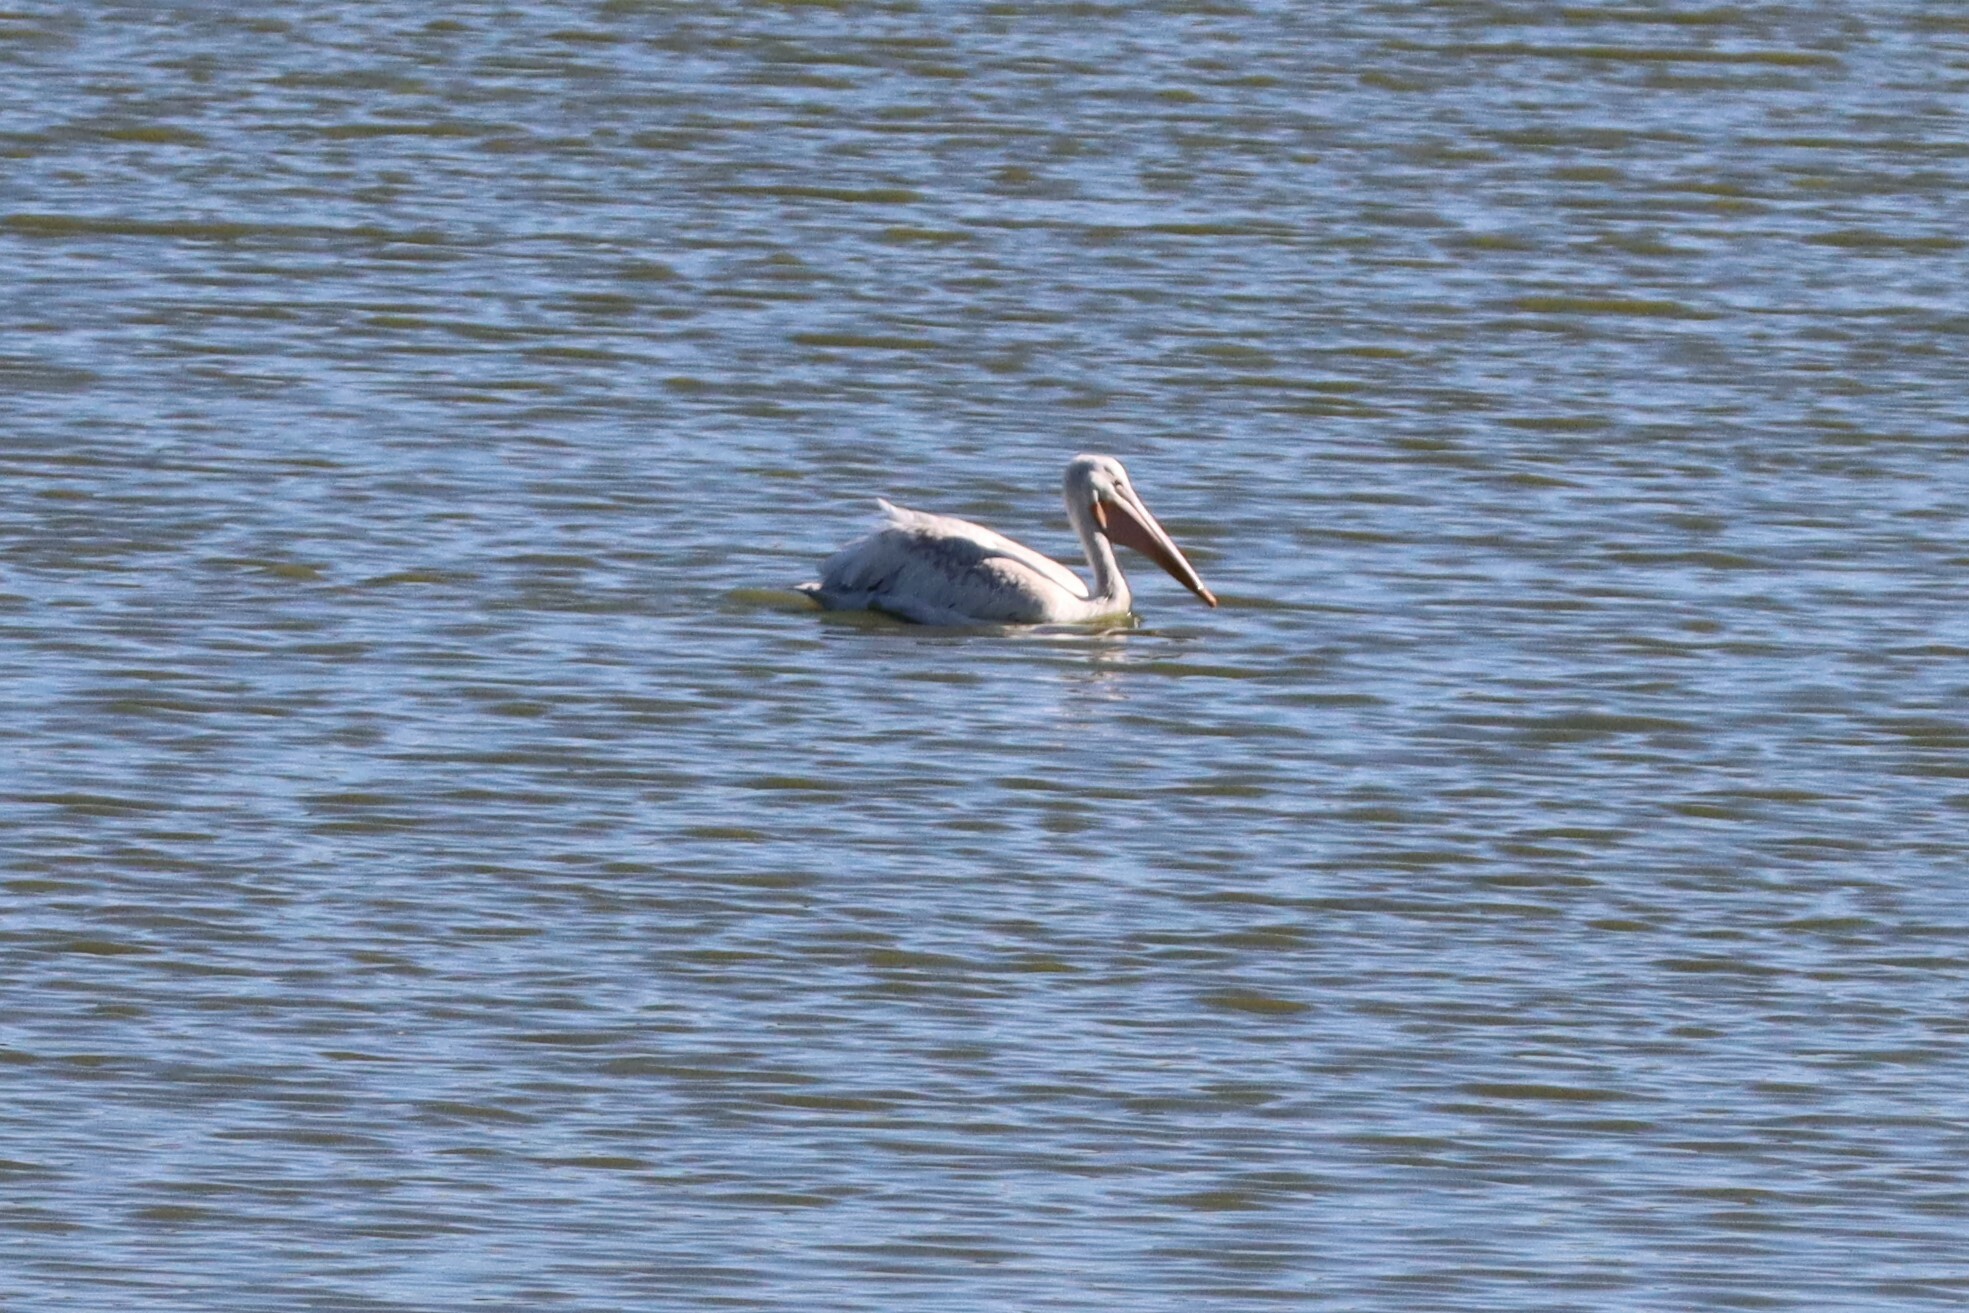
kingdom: Animalia
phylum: Chordata
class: Aves
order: Pelecaniformes
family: Pelecanidae
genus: Pelecanus
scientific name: Pelecanus erythrorhynchos
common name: American white pelican
